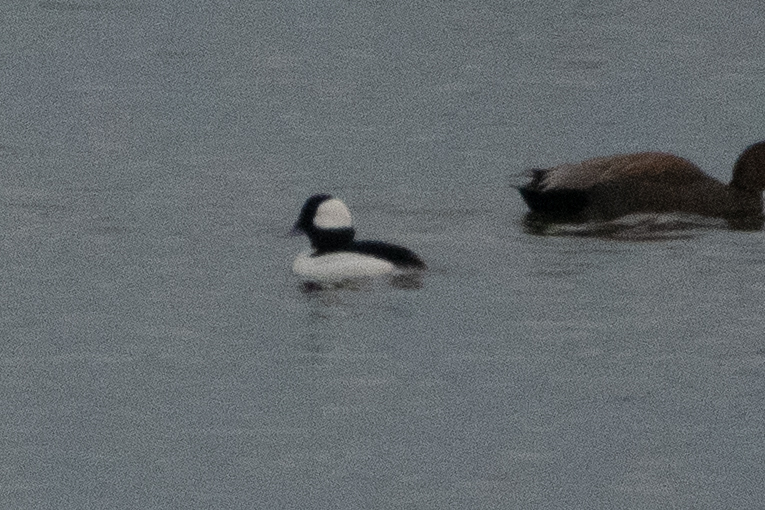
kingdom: Animalia
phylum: Chordata
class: Aves
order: Anseriformes
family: Anatidae
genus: Bucephala
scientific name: Bucephala albeola
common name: Bufflehead
